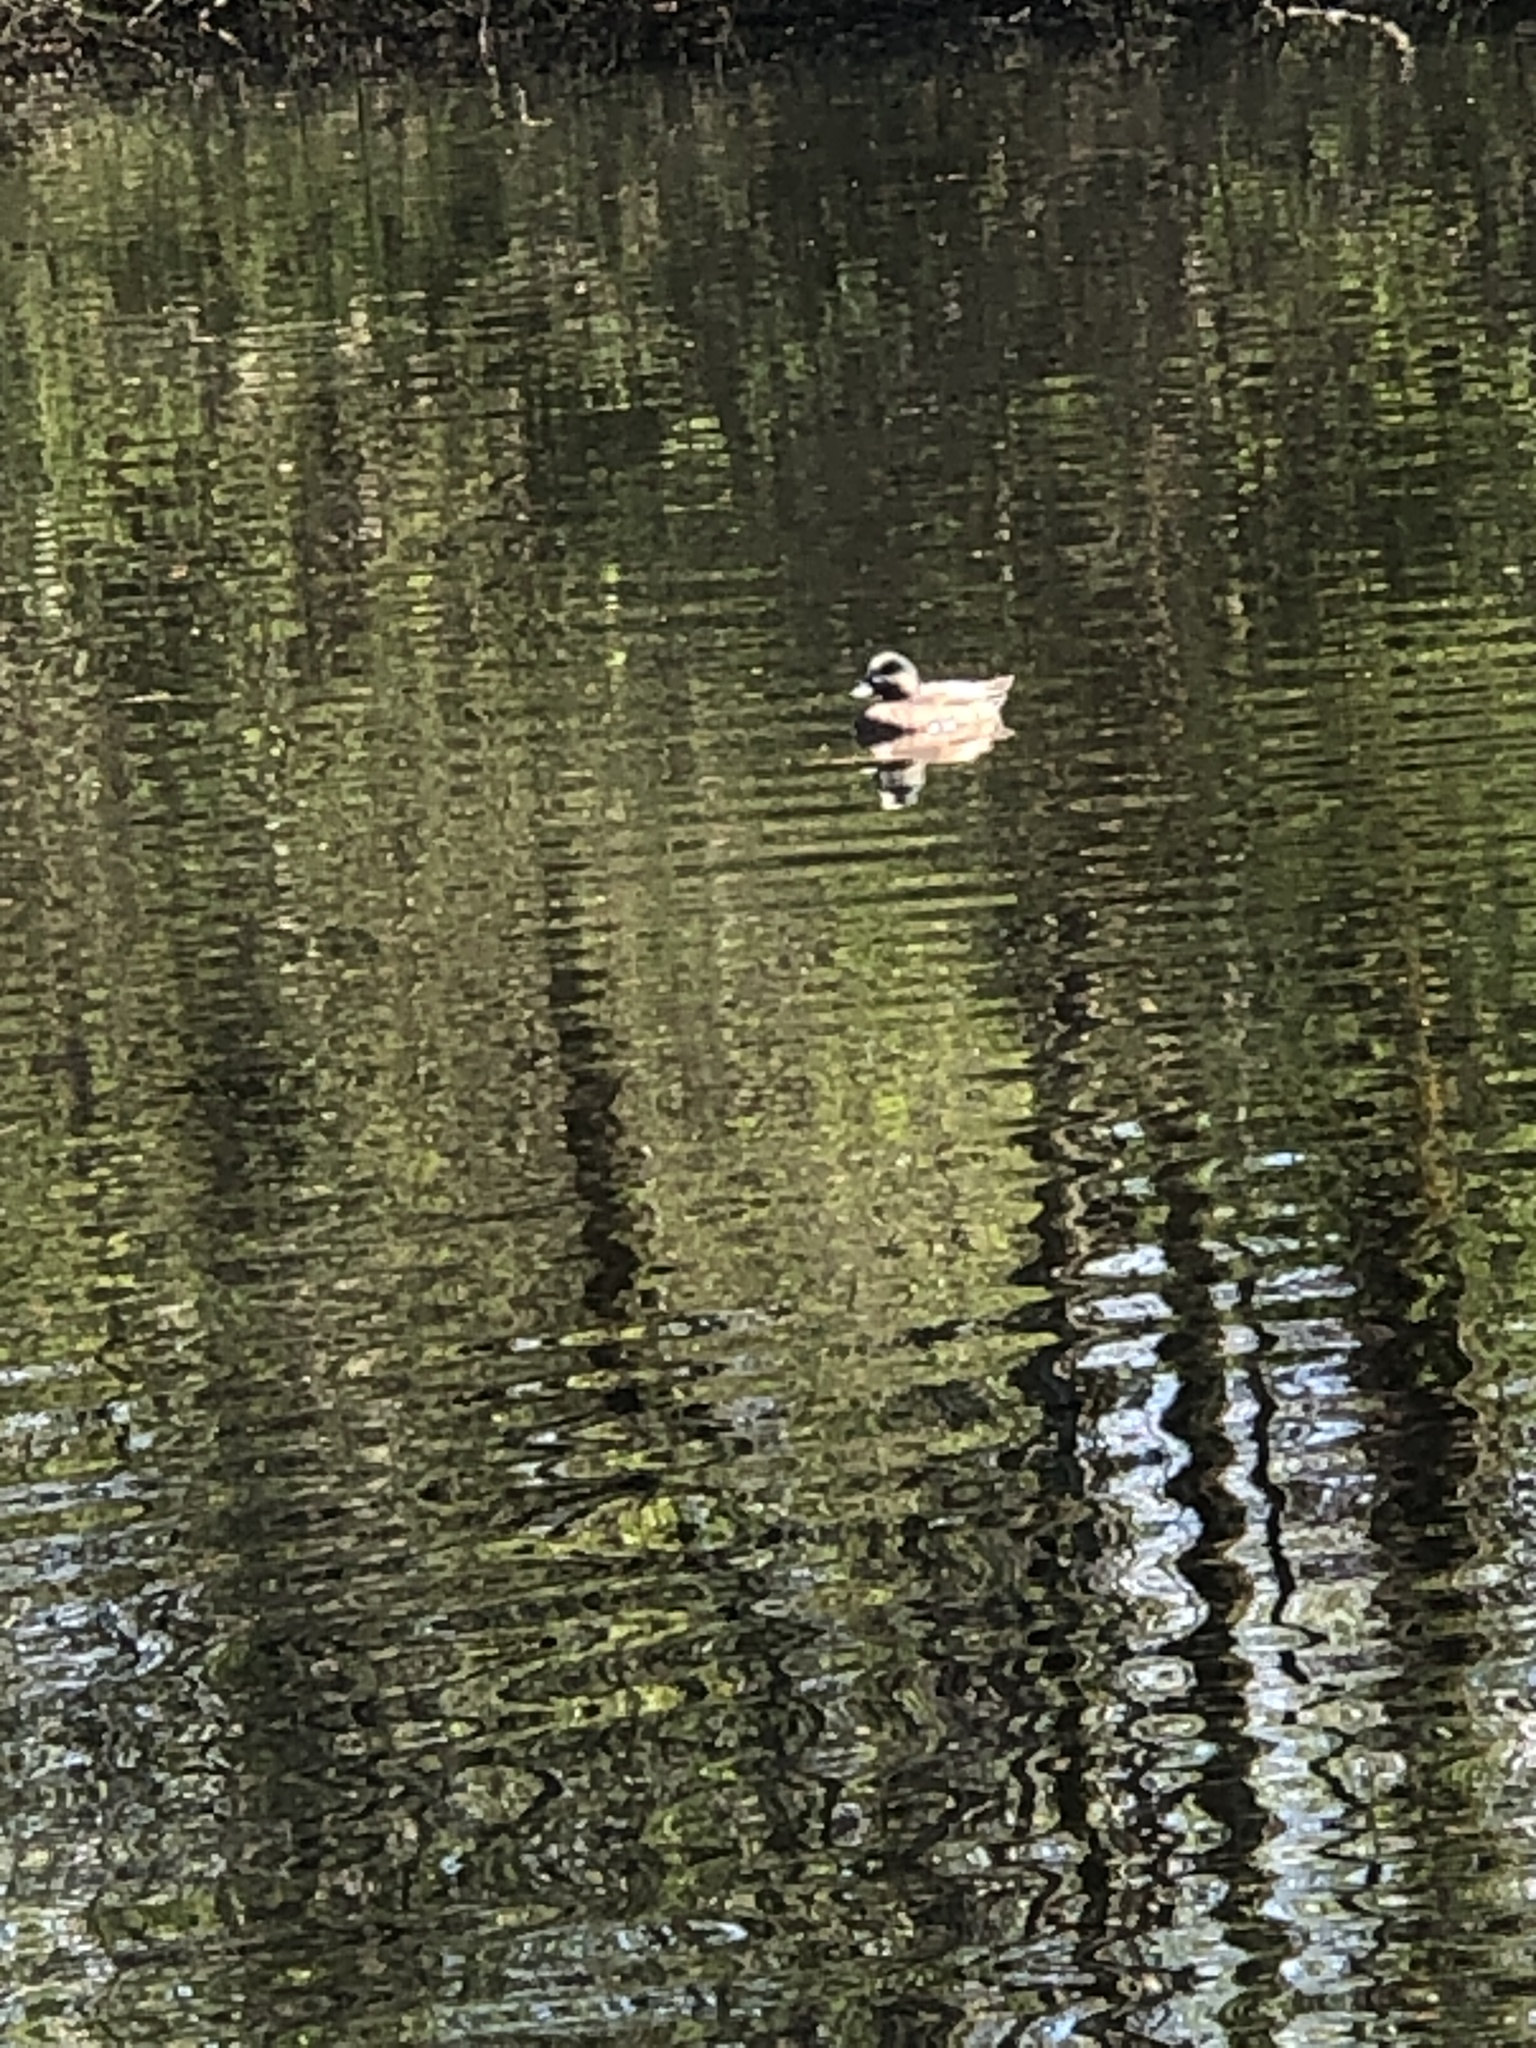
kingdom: Animalia
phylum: Chordata
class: Aves
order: Anseriformes
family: Anatidae
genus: Mareca
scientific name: Mareca americana
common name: American wigeon
